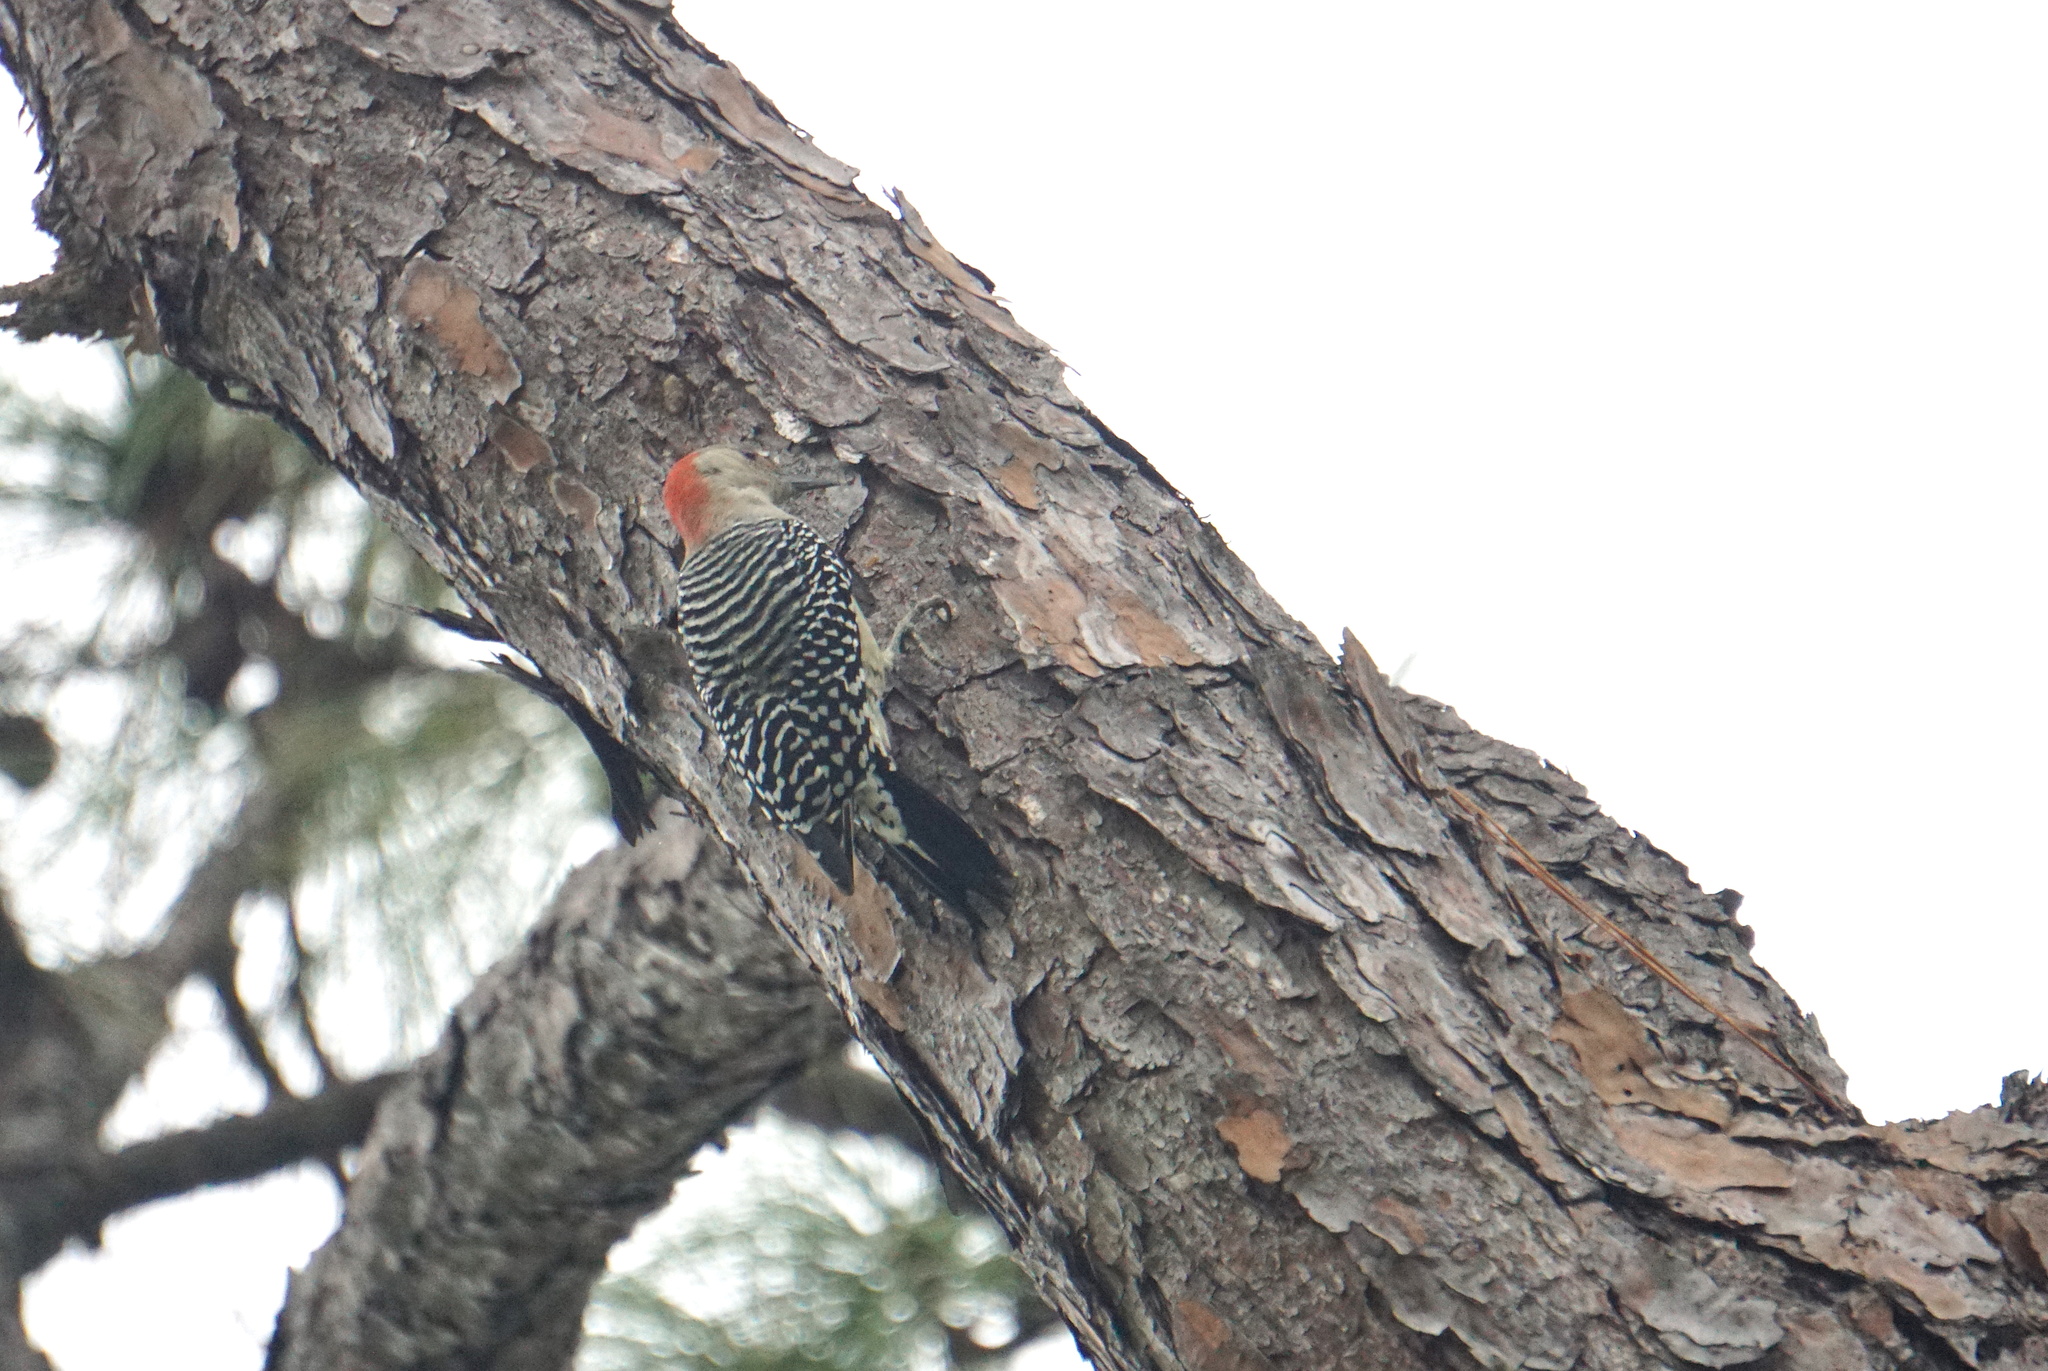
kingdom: Animalia
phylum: Chordata
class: Aves
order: Piciformes
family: Picidae
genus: Melanerpes
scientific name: Melanerpes carolinus
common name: Red-bellied woodpecker
